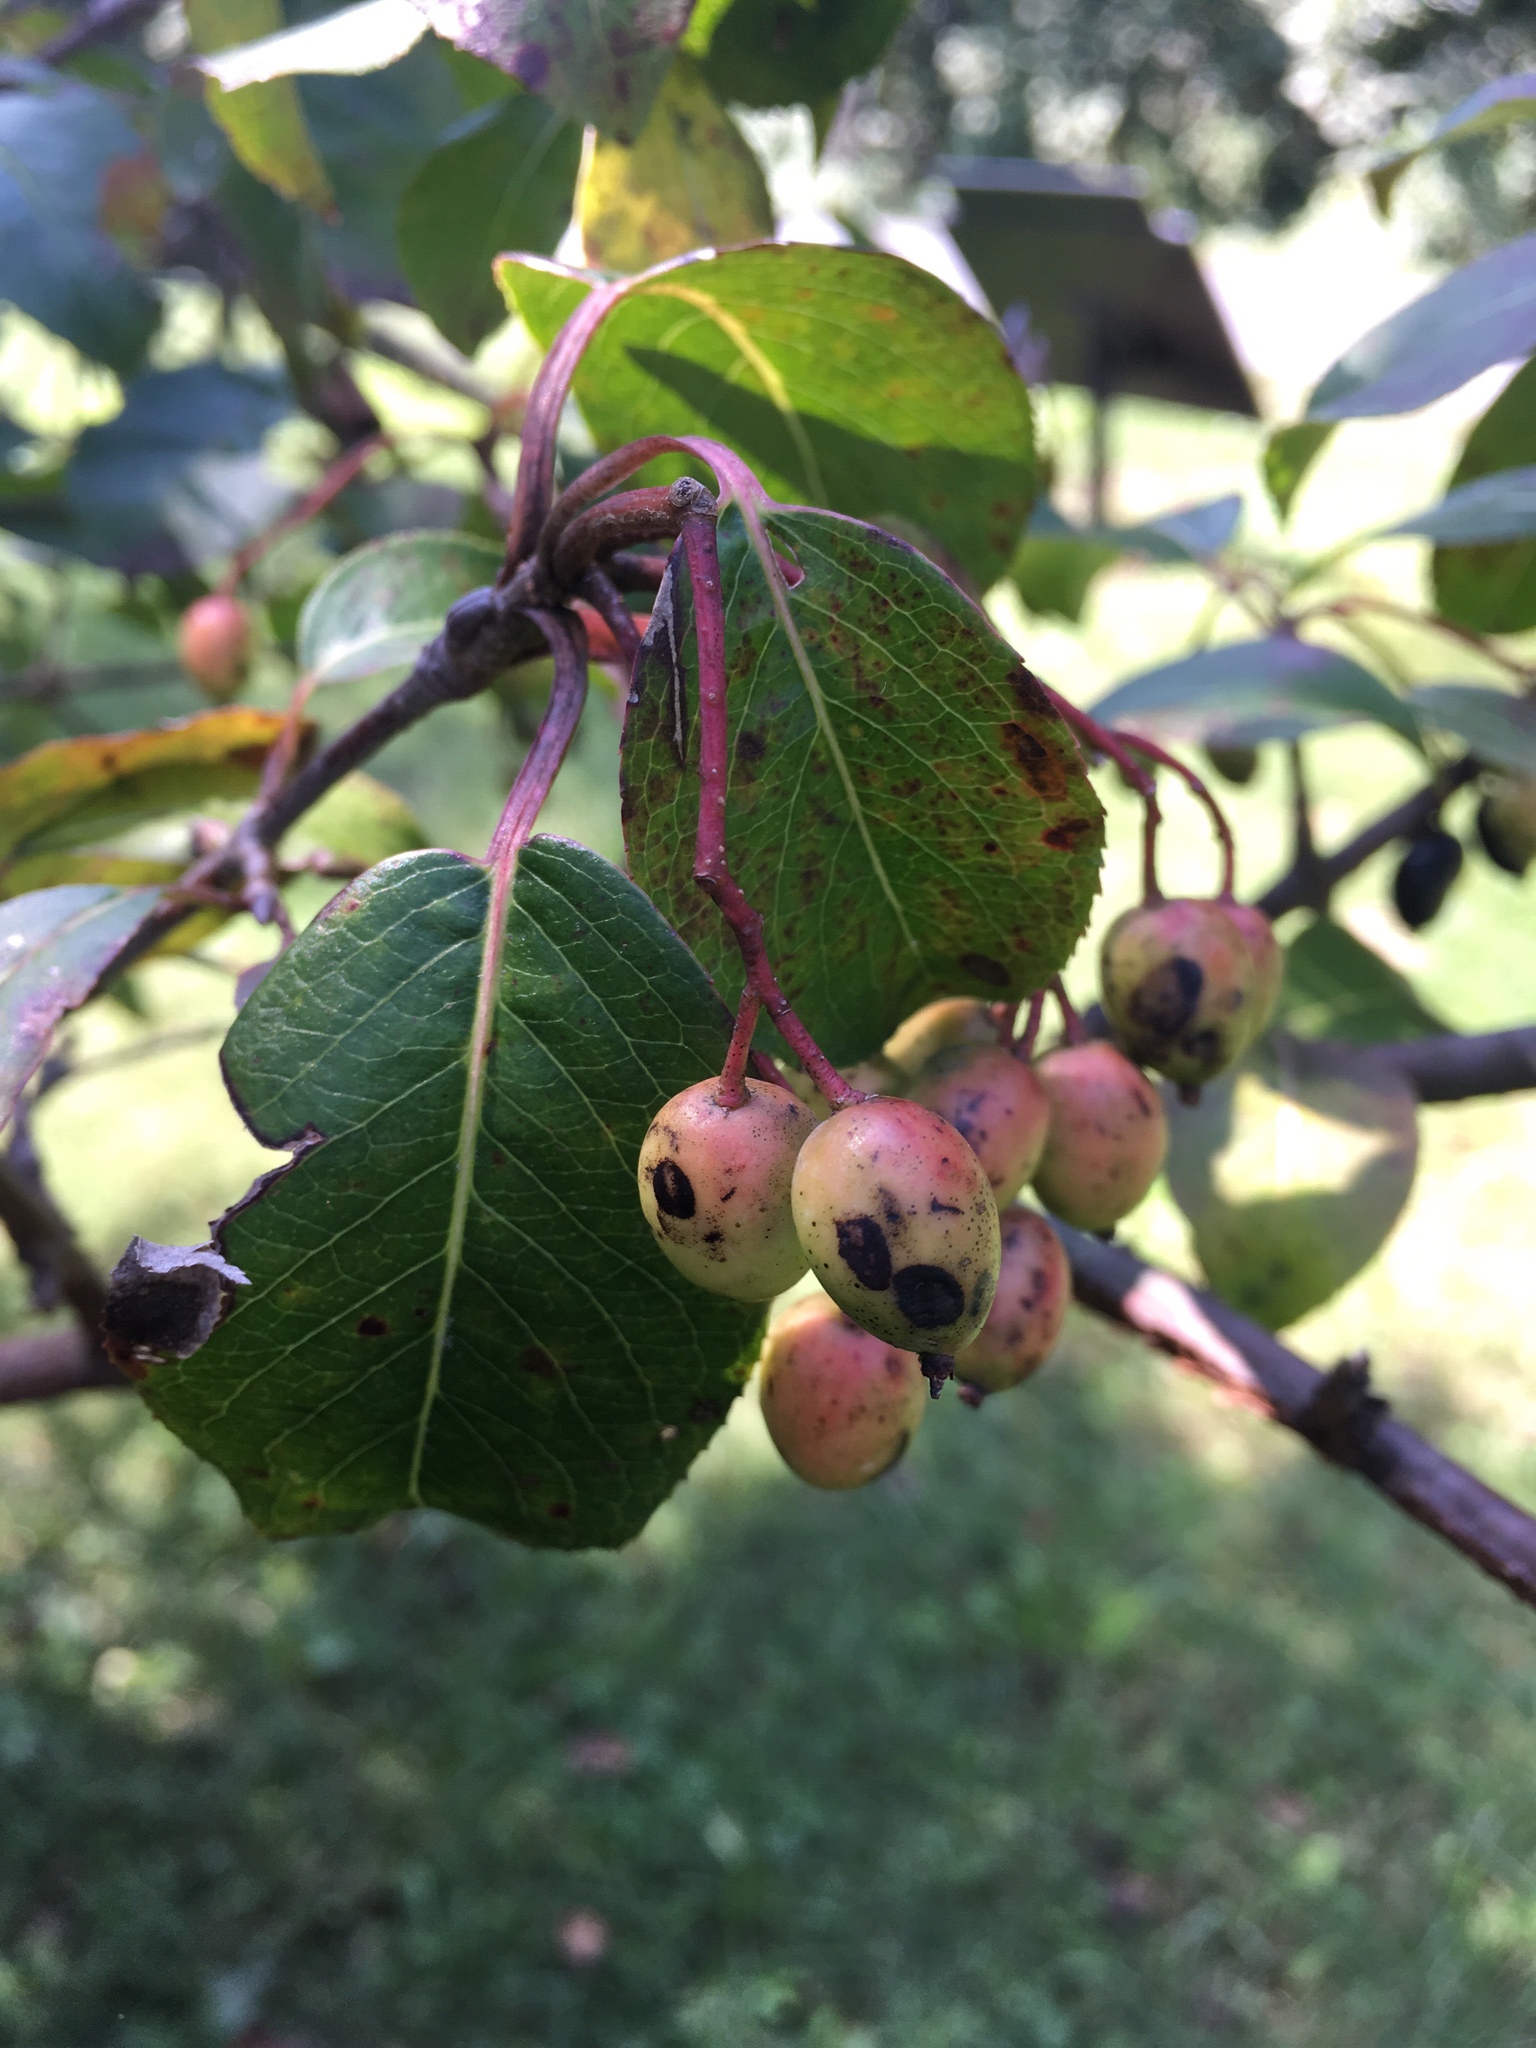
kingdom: Plantae
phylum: Tracheophyta
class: Magnoliopsida
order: Dipsacales
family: Viburnaceae
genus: Viburnum
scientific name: Viburnum prunifolium
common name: Black haw
